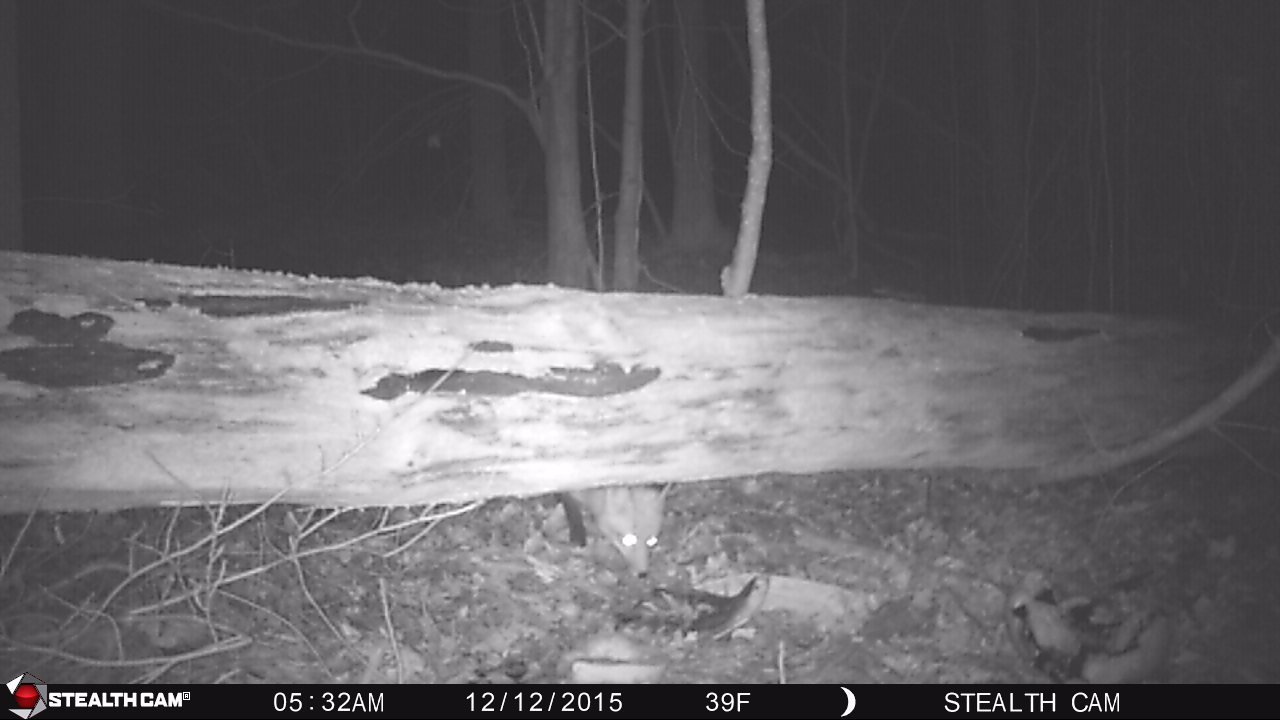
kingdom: Animalia
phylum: Chordata
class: Mammalia
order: Carnivora
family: Canidae
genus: Vulpes
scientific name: Vulpes vulpes
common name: Red fox
